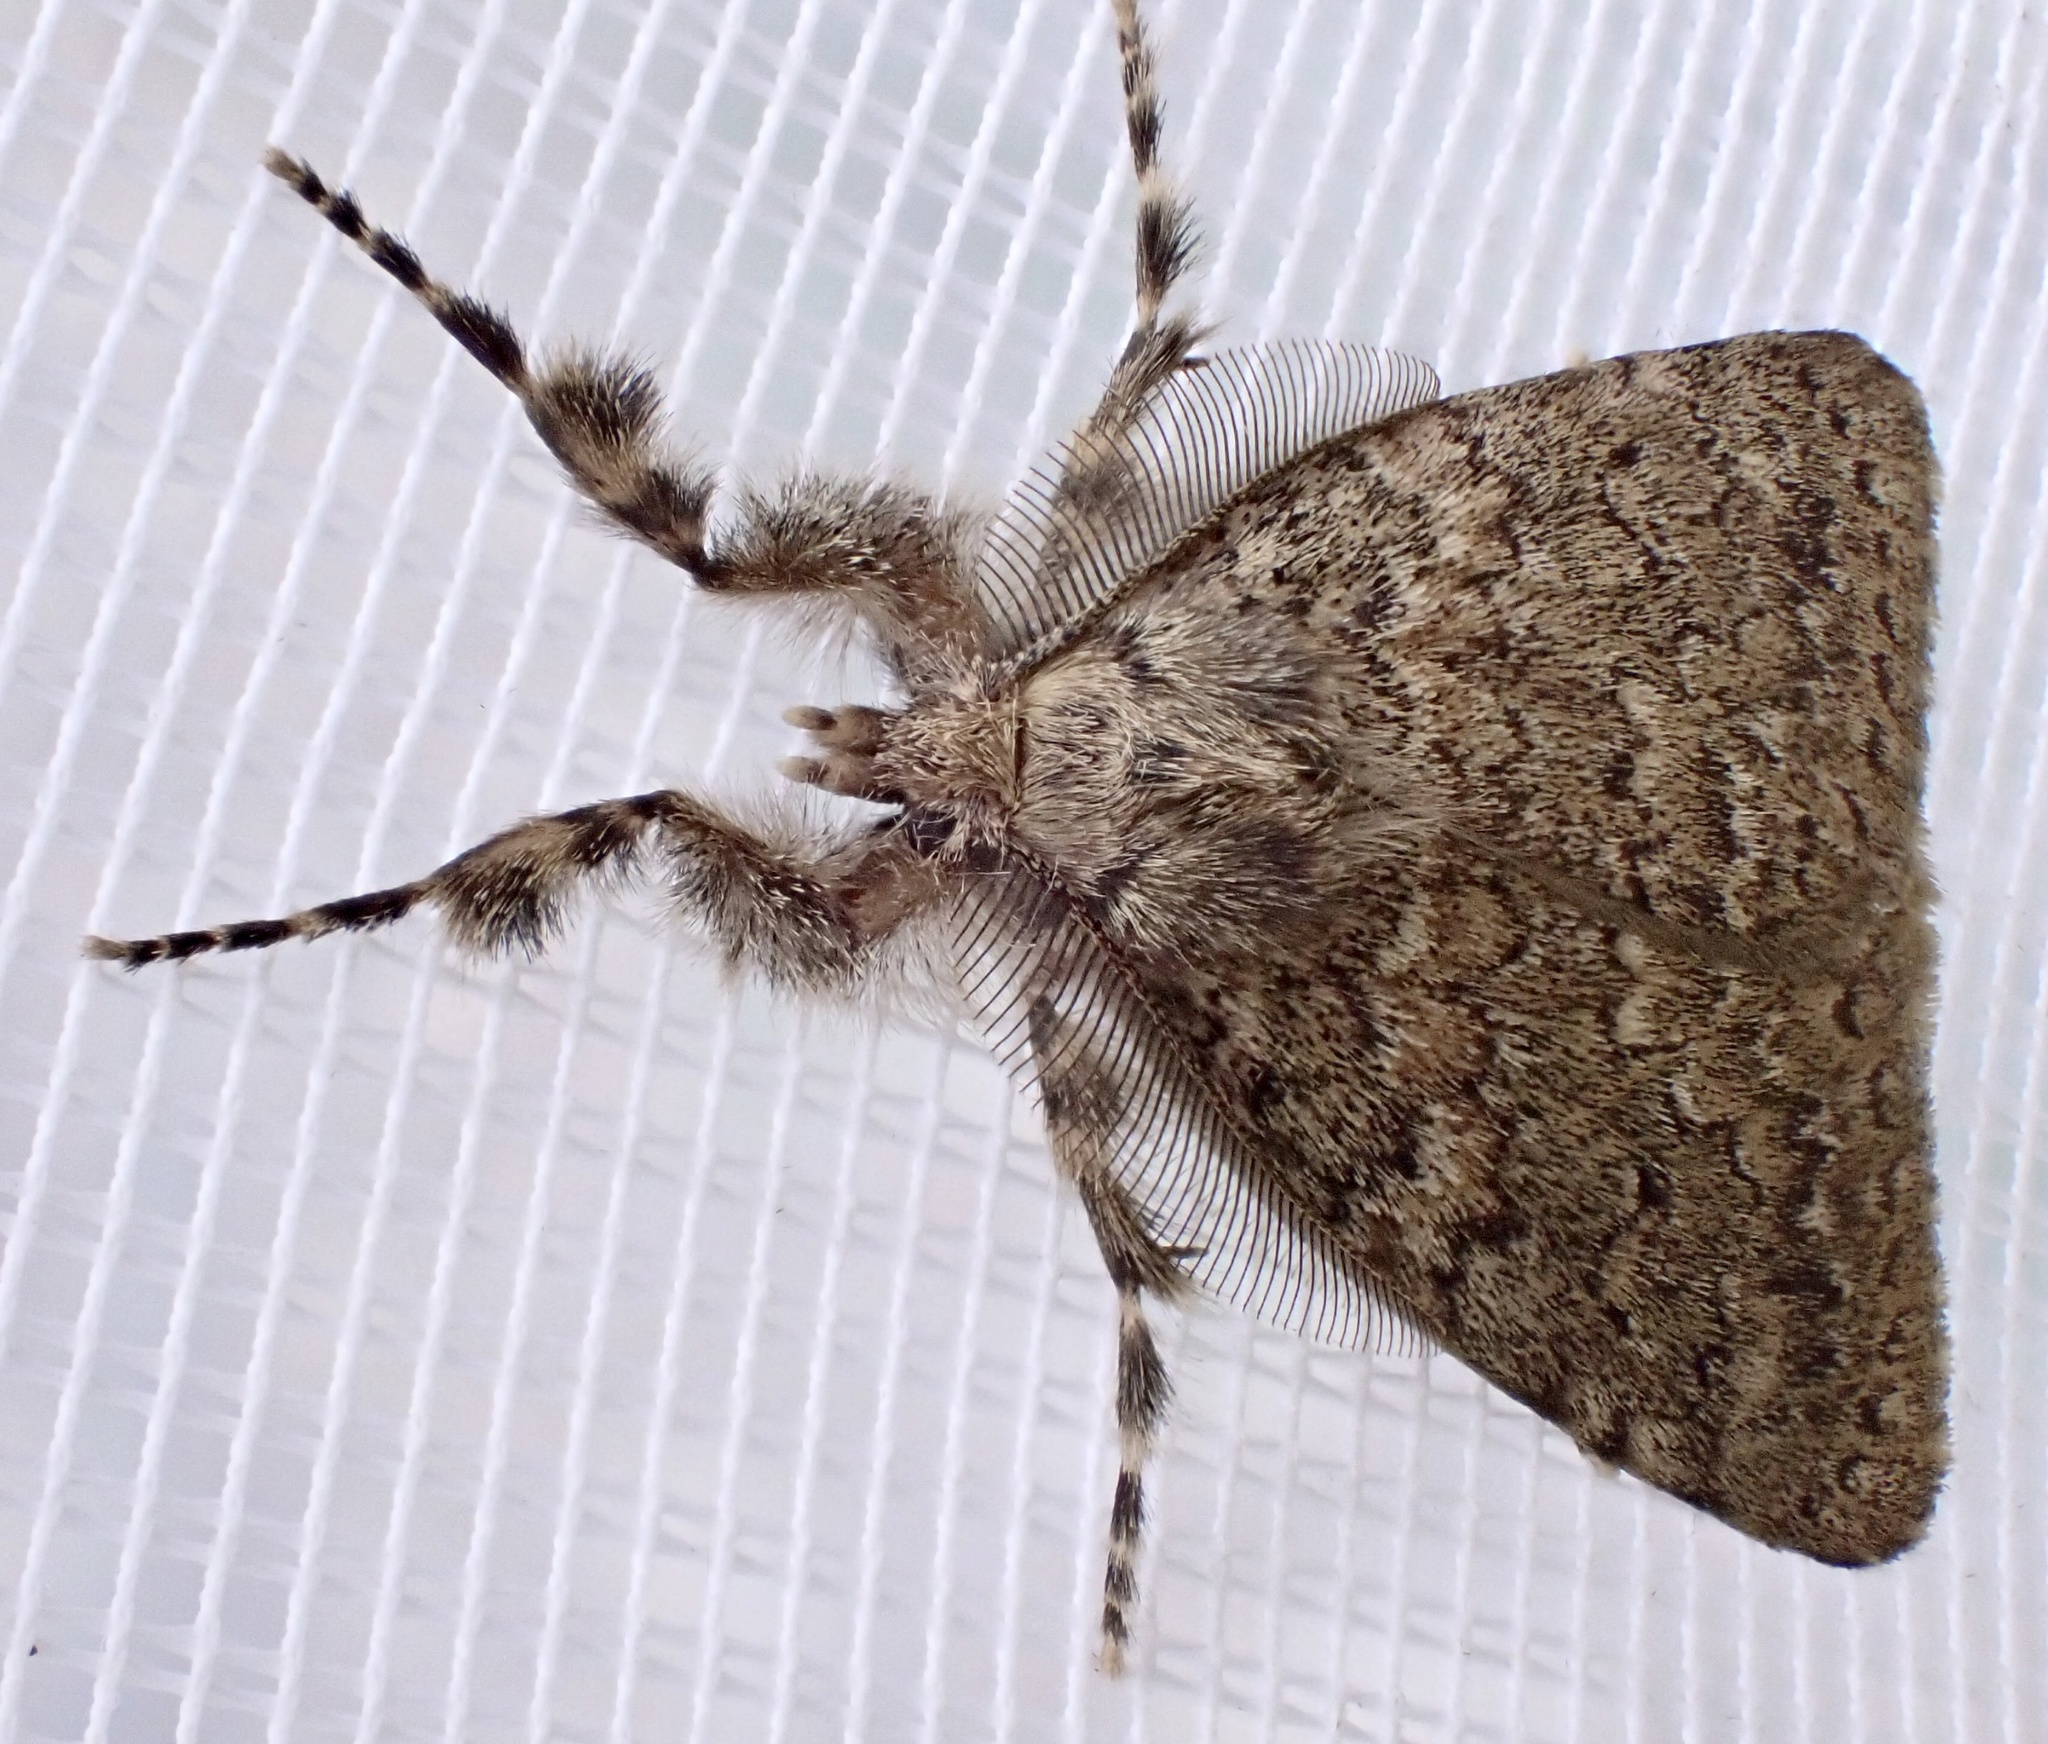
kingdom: Animalia
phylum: Arthropoda
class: Insecta
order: Lepidoptera
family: Erebidae
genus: Laelia
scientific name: Laelia fusca
